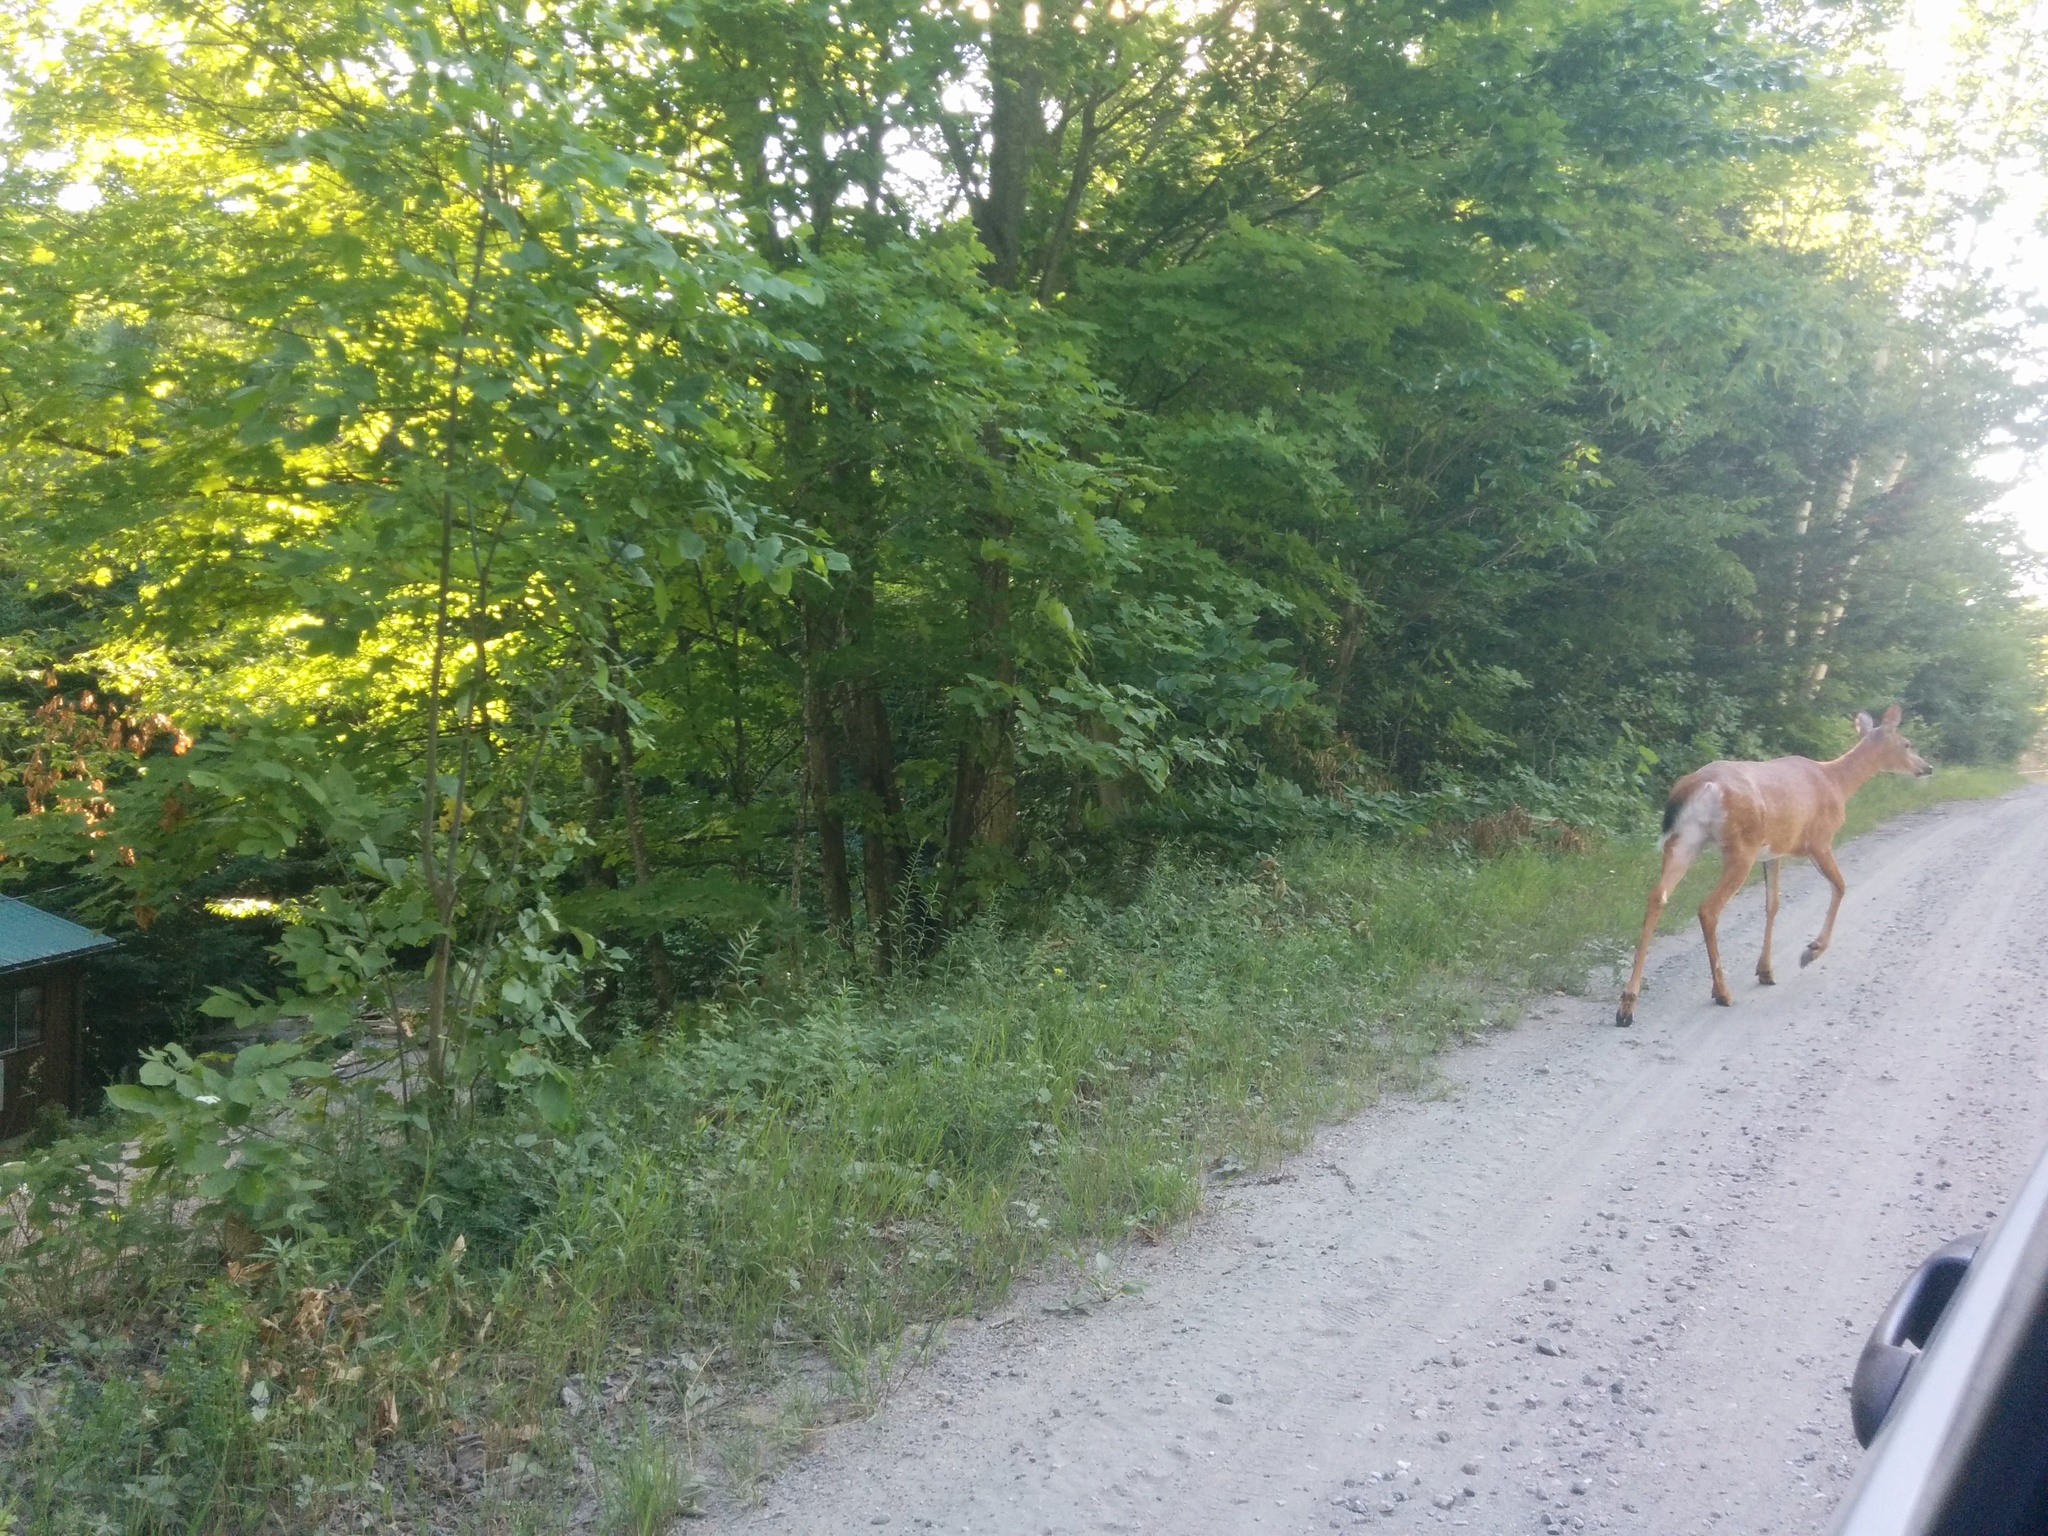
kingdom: Animalia
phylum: Chordata
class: Mammalia
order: Artiodactyla
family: Cervidae
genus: Odocoileus
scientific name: Odocoileus virginianus
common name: White-tailed deer
